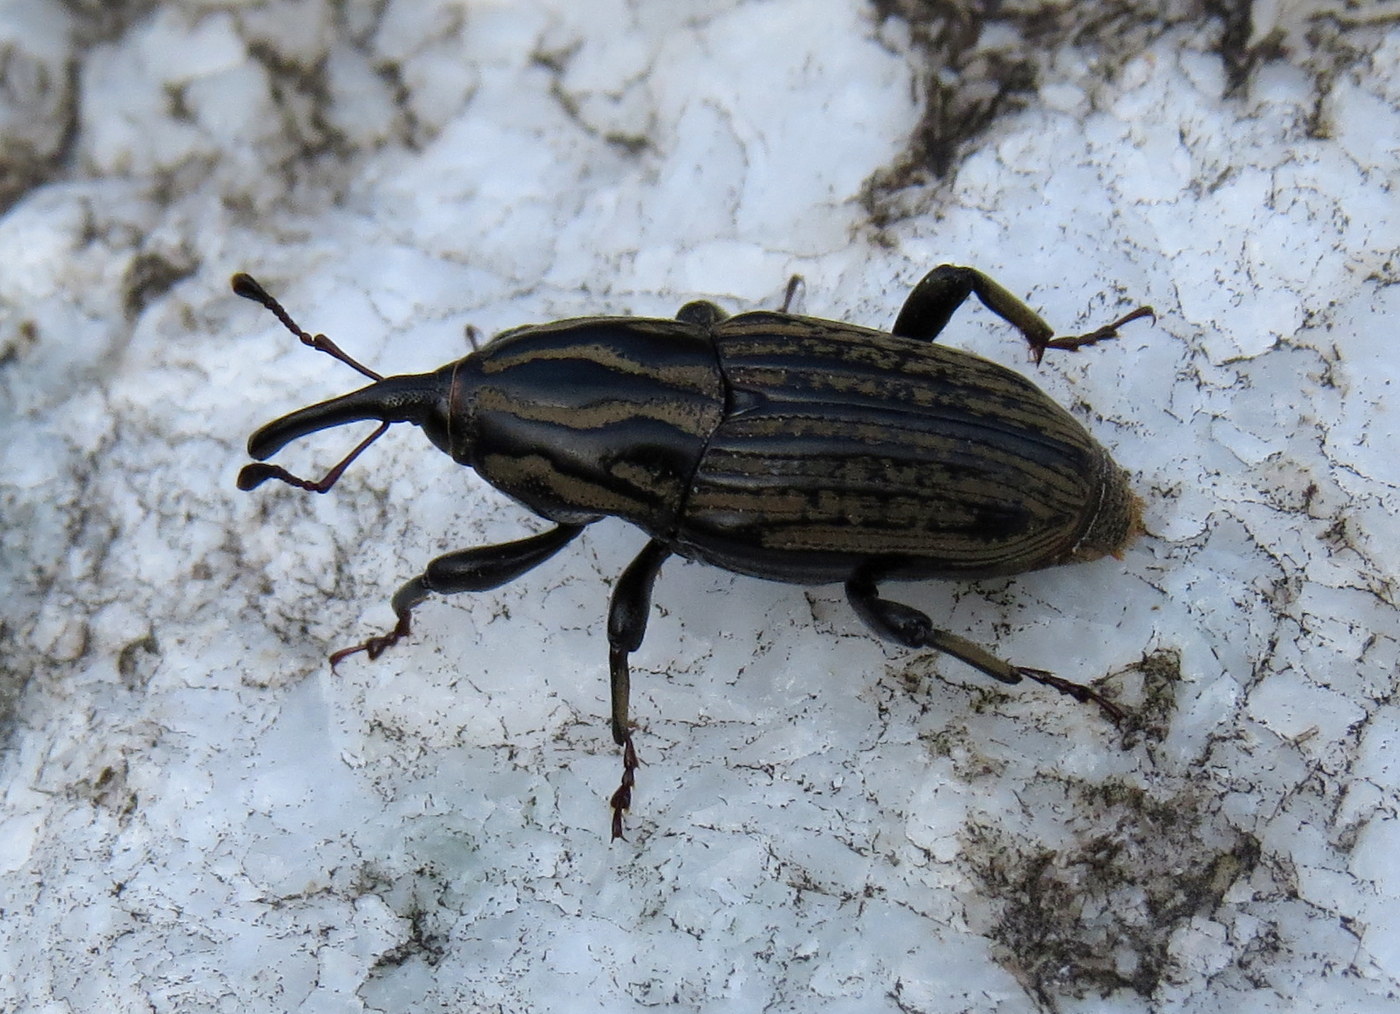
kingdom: Animalia
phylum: Arthropoda
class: Insecta
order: Coleoptera
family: Dryophthoridae
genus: Sphenophorus
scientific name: Sphenophorus australis
